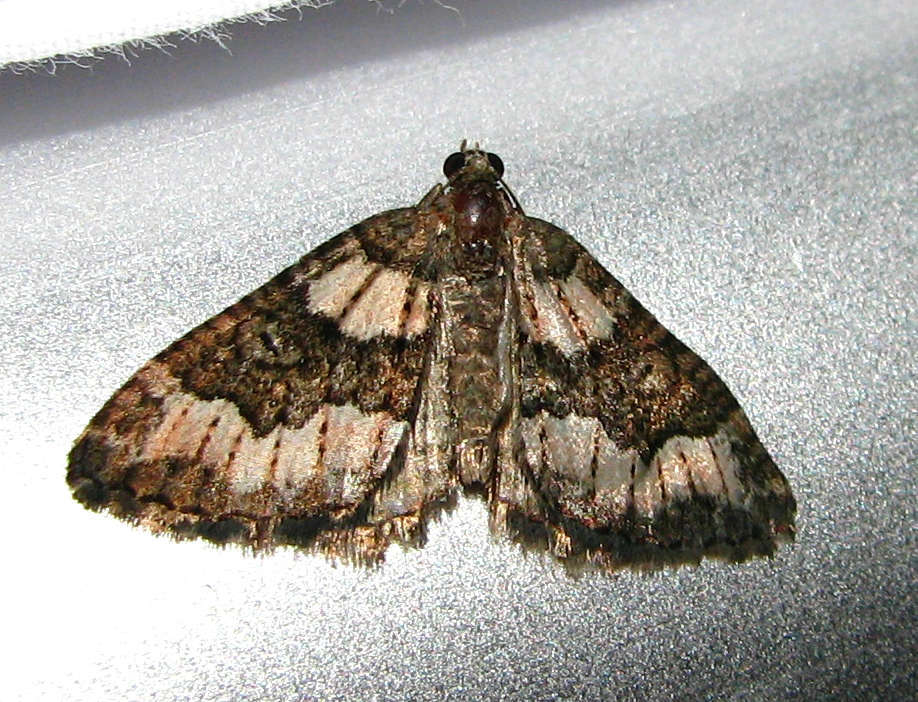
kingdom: Animalia
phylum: Arthropoda
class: Insecta
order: Lepidoptera
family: Geometridae
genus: Chrysolarentia
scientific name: Chrysolarentia gypsomela
